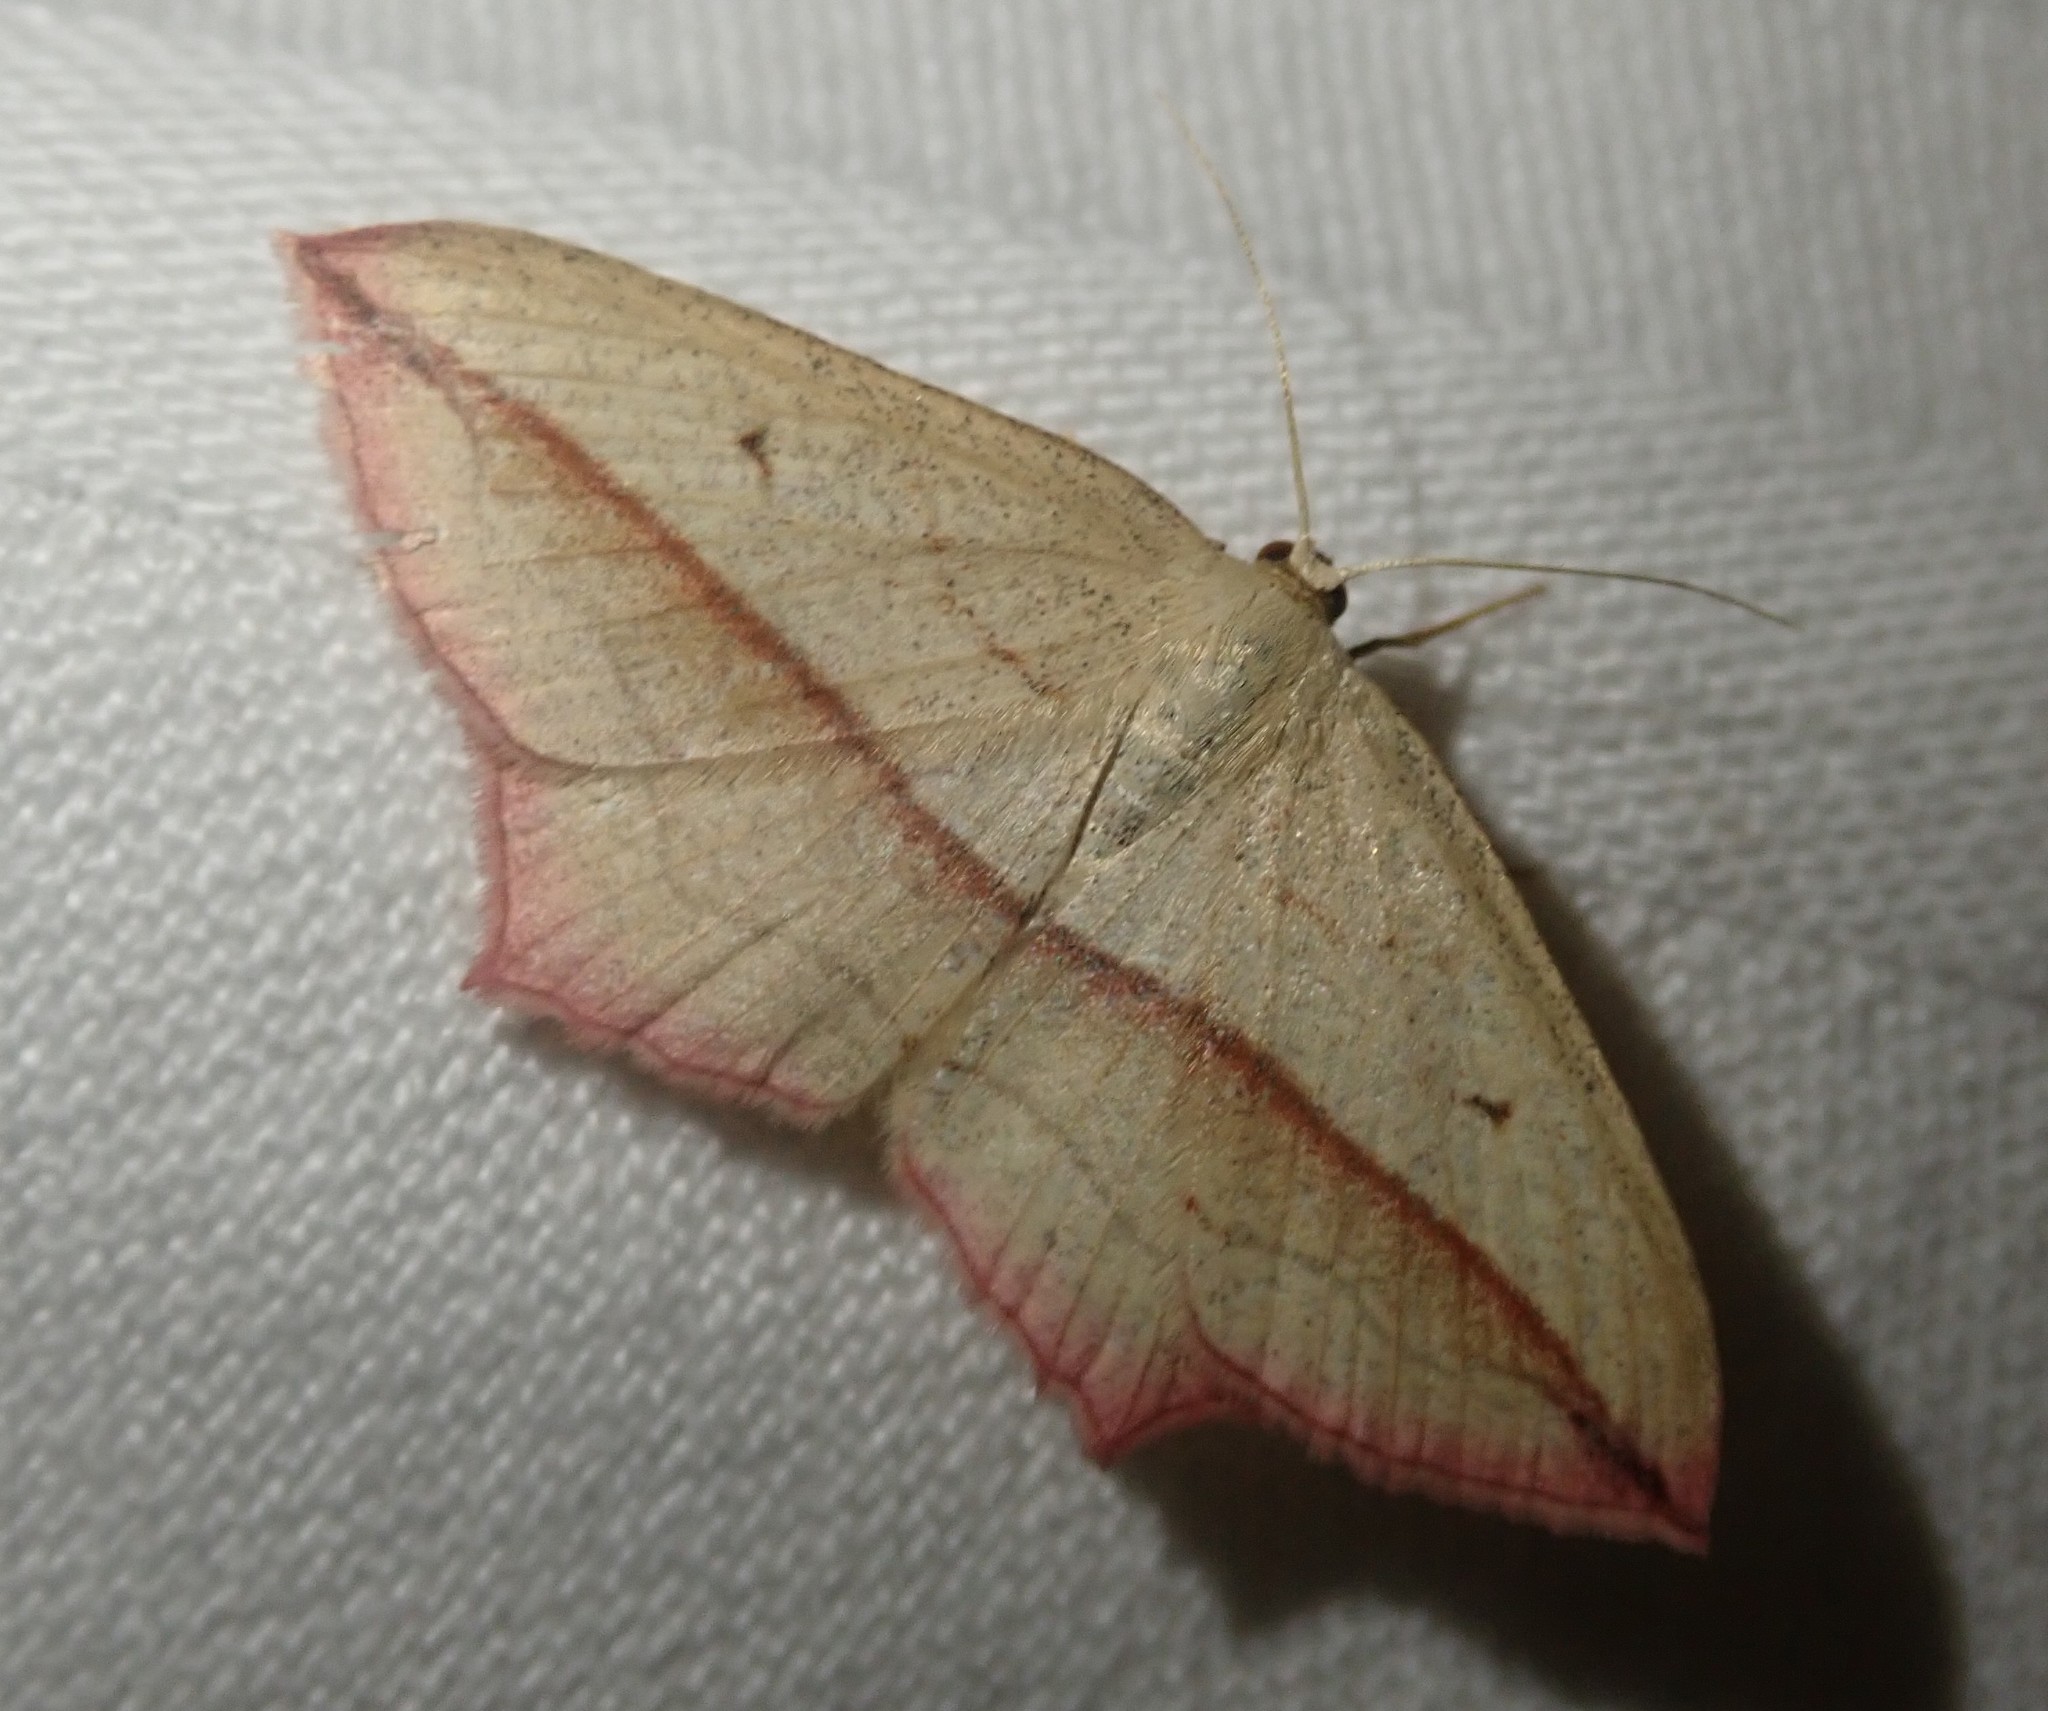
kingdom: Animalia
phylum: Arthropoda
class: Insecta
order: Lepidoptera
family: Geometridae
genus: Timandra
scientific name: Timandra comae
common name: Blood-vein
